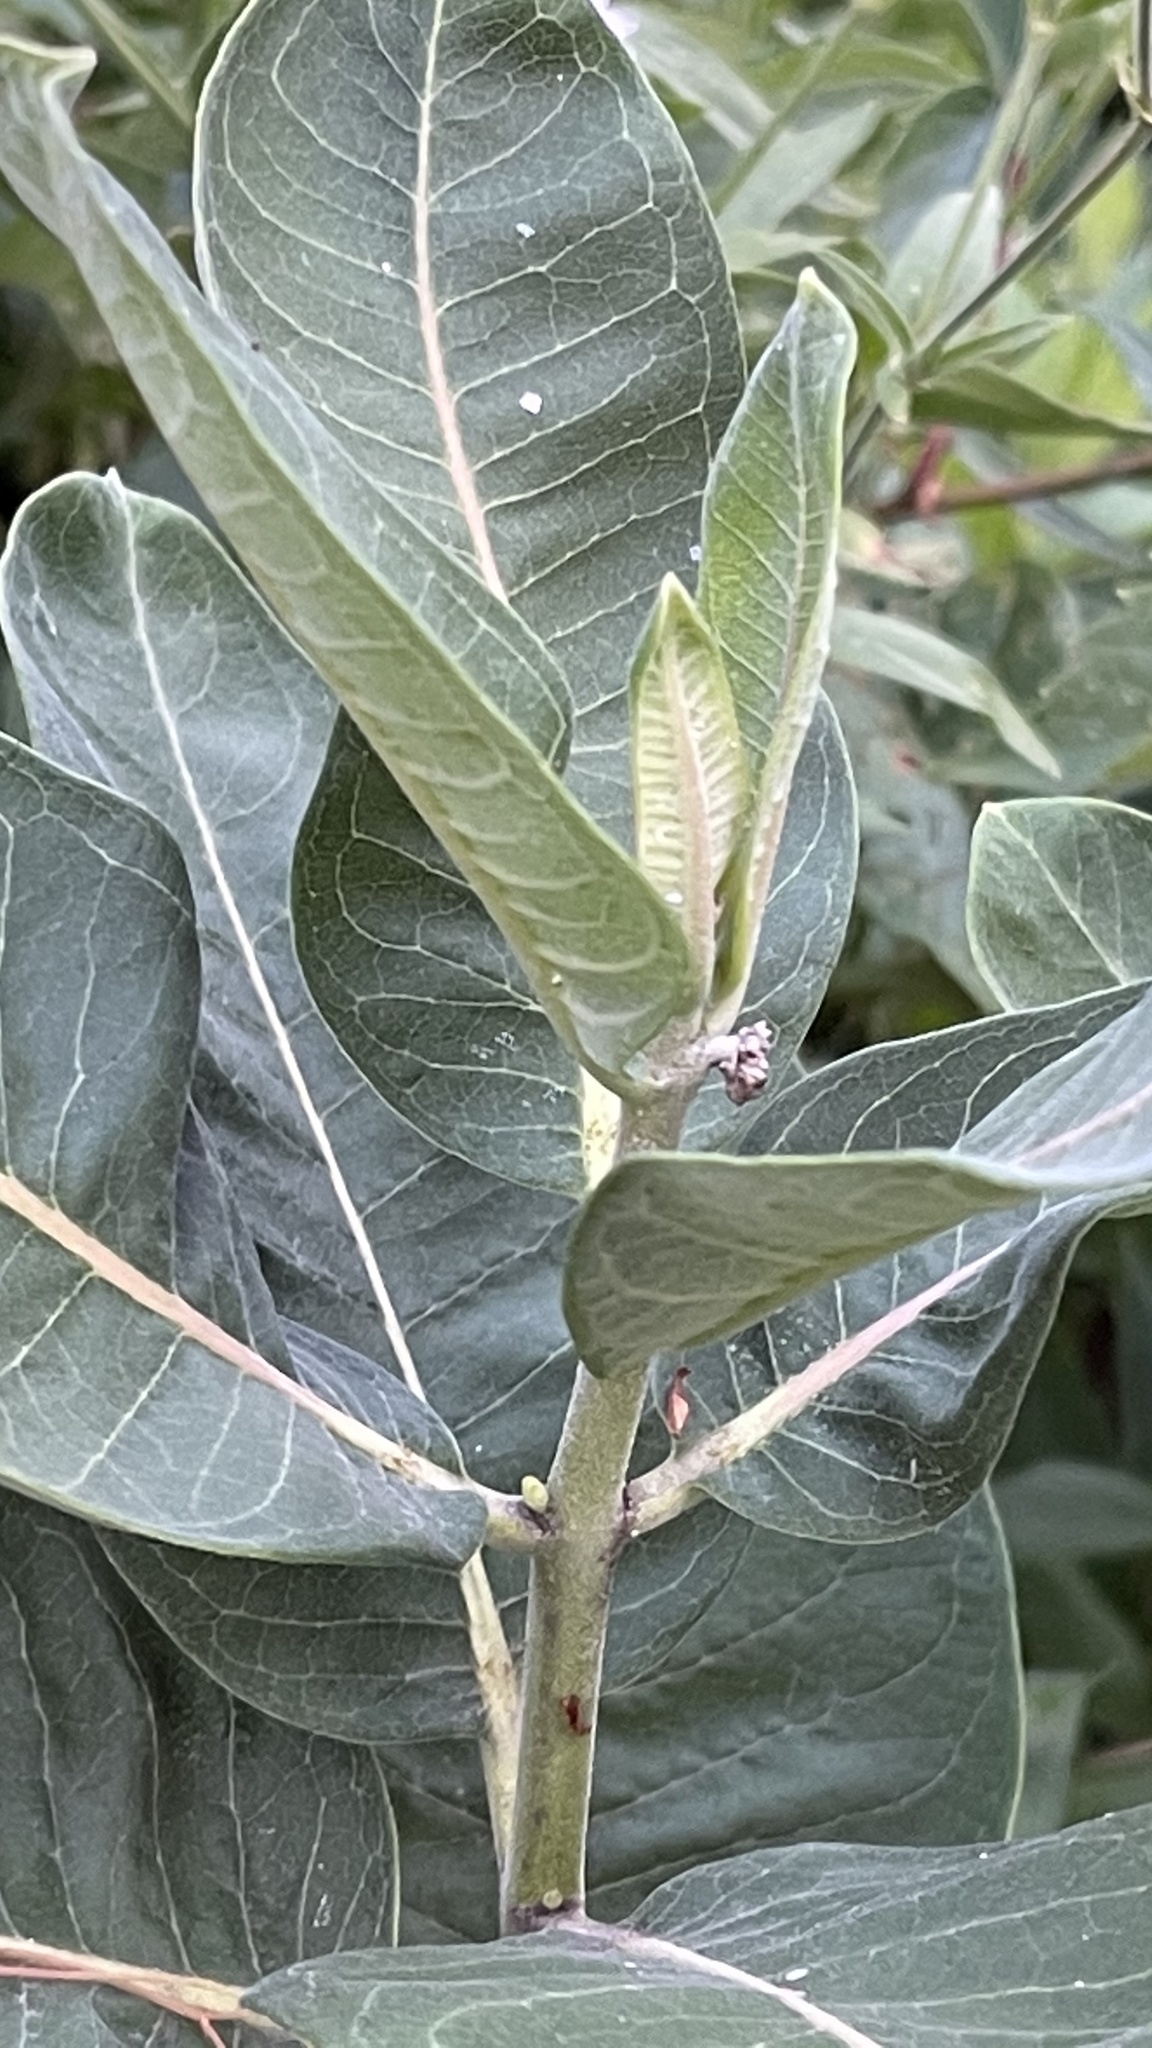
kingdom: Plantae
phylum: Tracheophyta
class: Magnoliopsida
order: Gentianales
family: Apocynaceae
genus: Asclepias
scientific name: Asclepias syriaca
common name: Common milkweed
